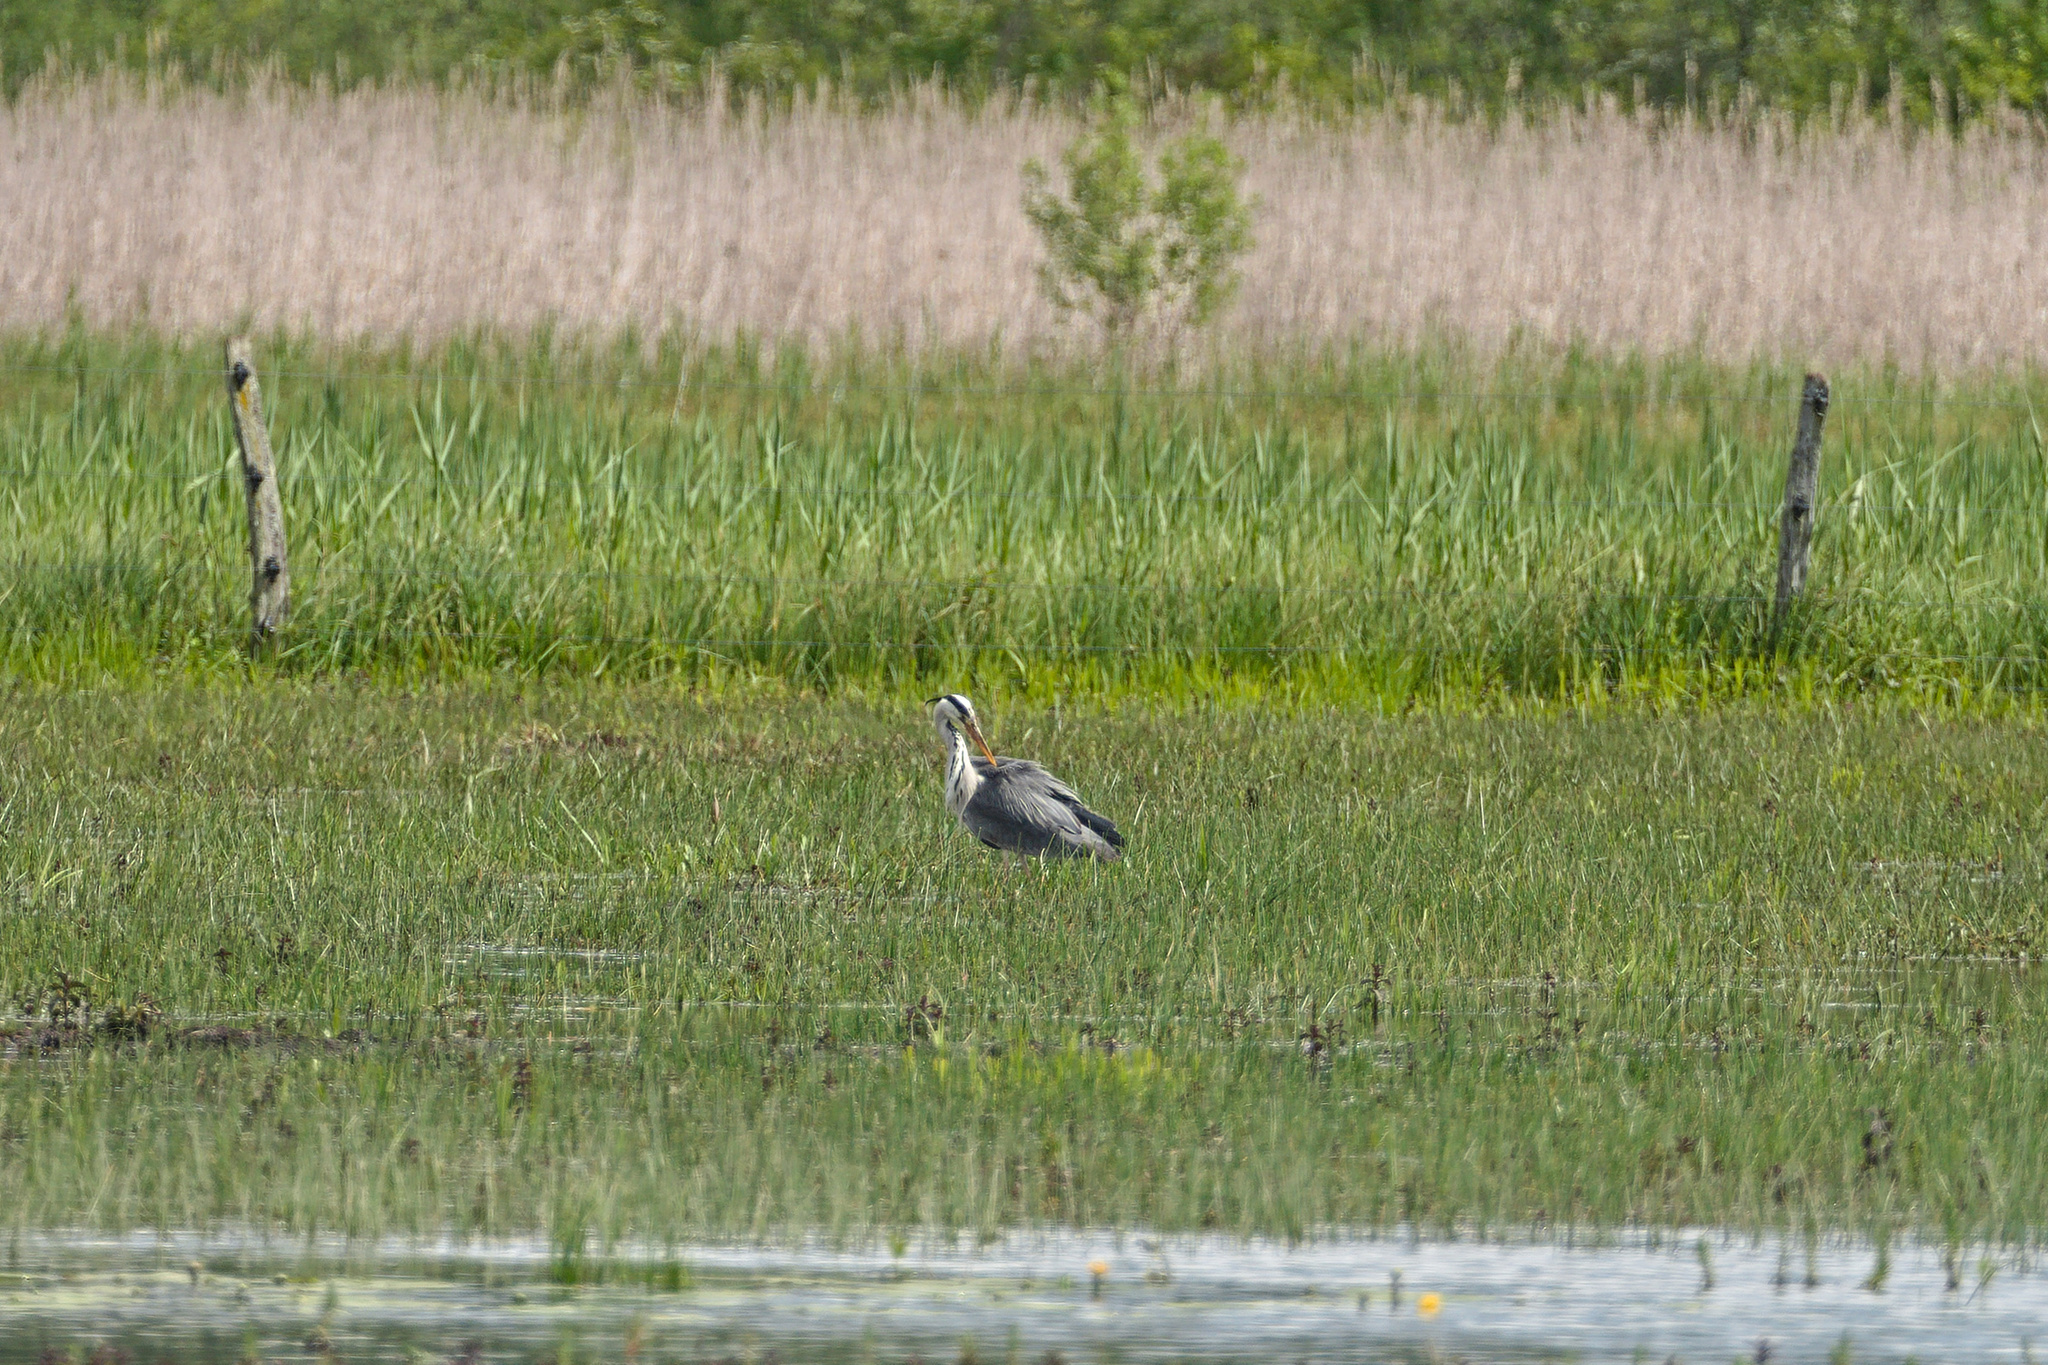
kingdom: Animalia
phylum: Chordata
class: Aves
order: Pelecaniformes
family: Ardeidae
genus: Ardea
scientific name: Ardea cinerea
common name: Grey heron
